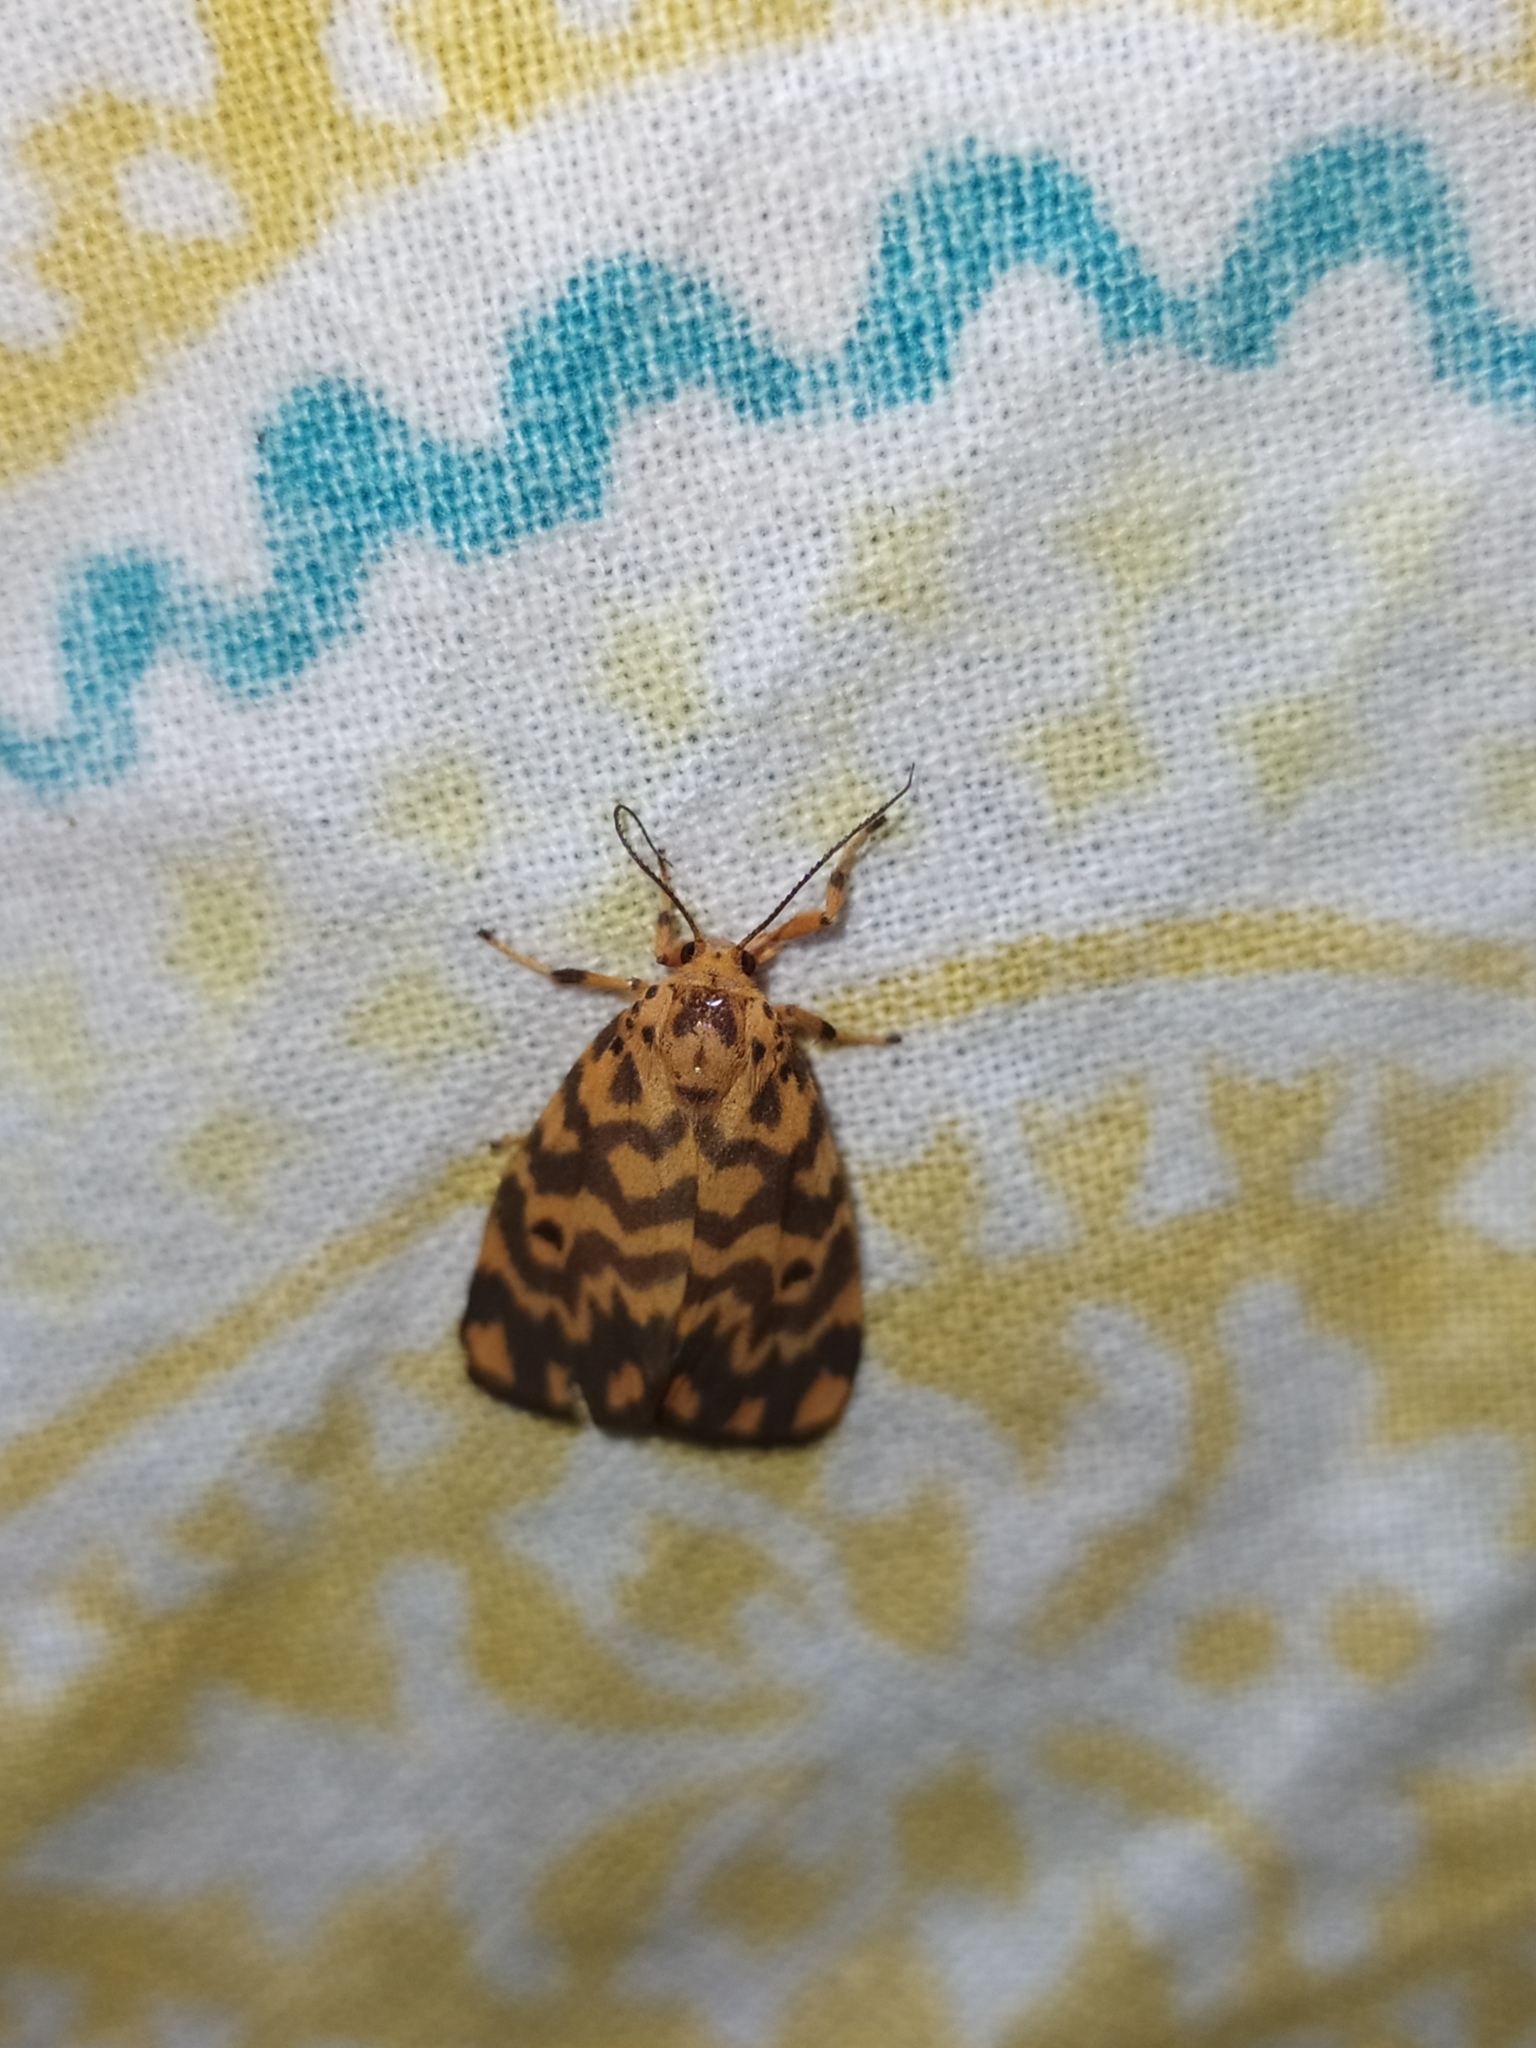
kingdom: Animalia
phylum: Arthropoda
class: Insecta
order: Lepidoptera
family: Erebidae
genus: Nepita
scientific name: Nepita conferta
